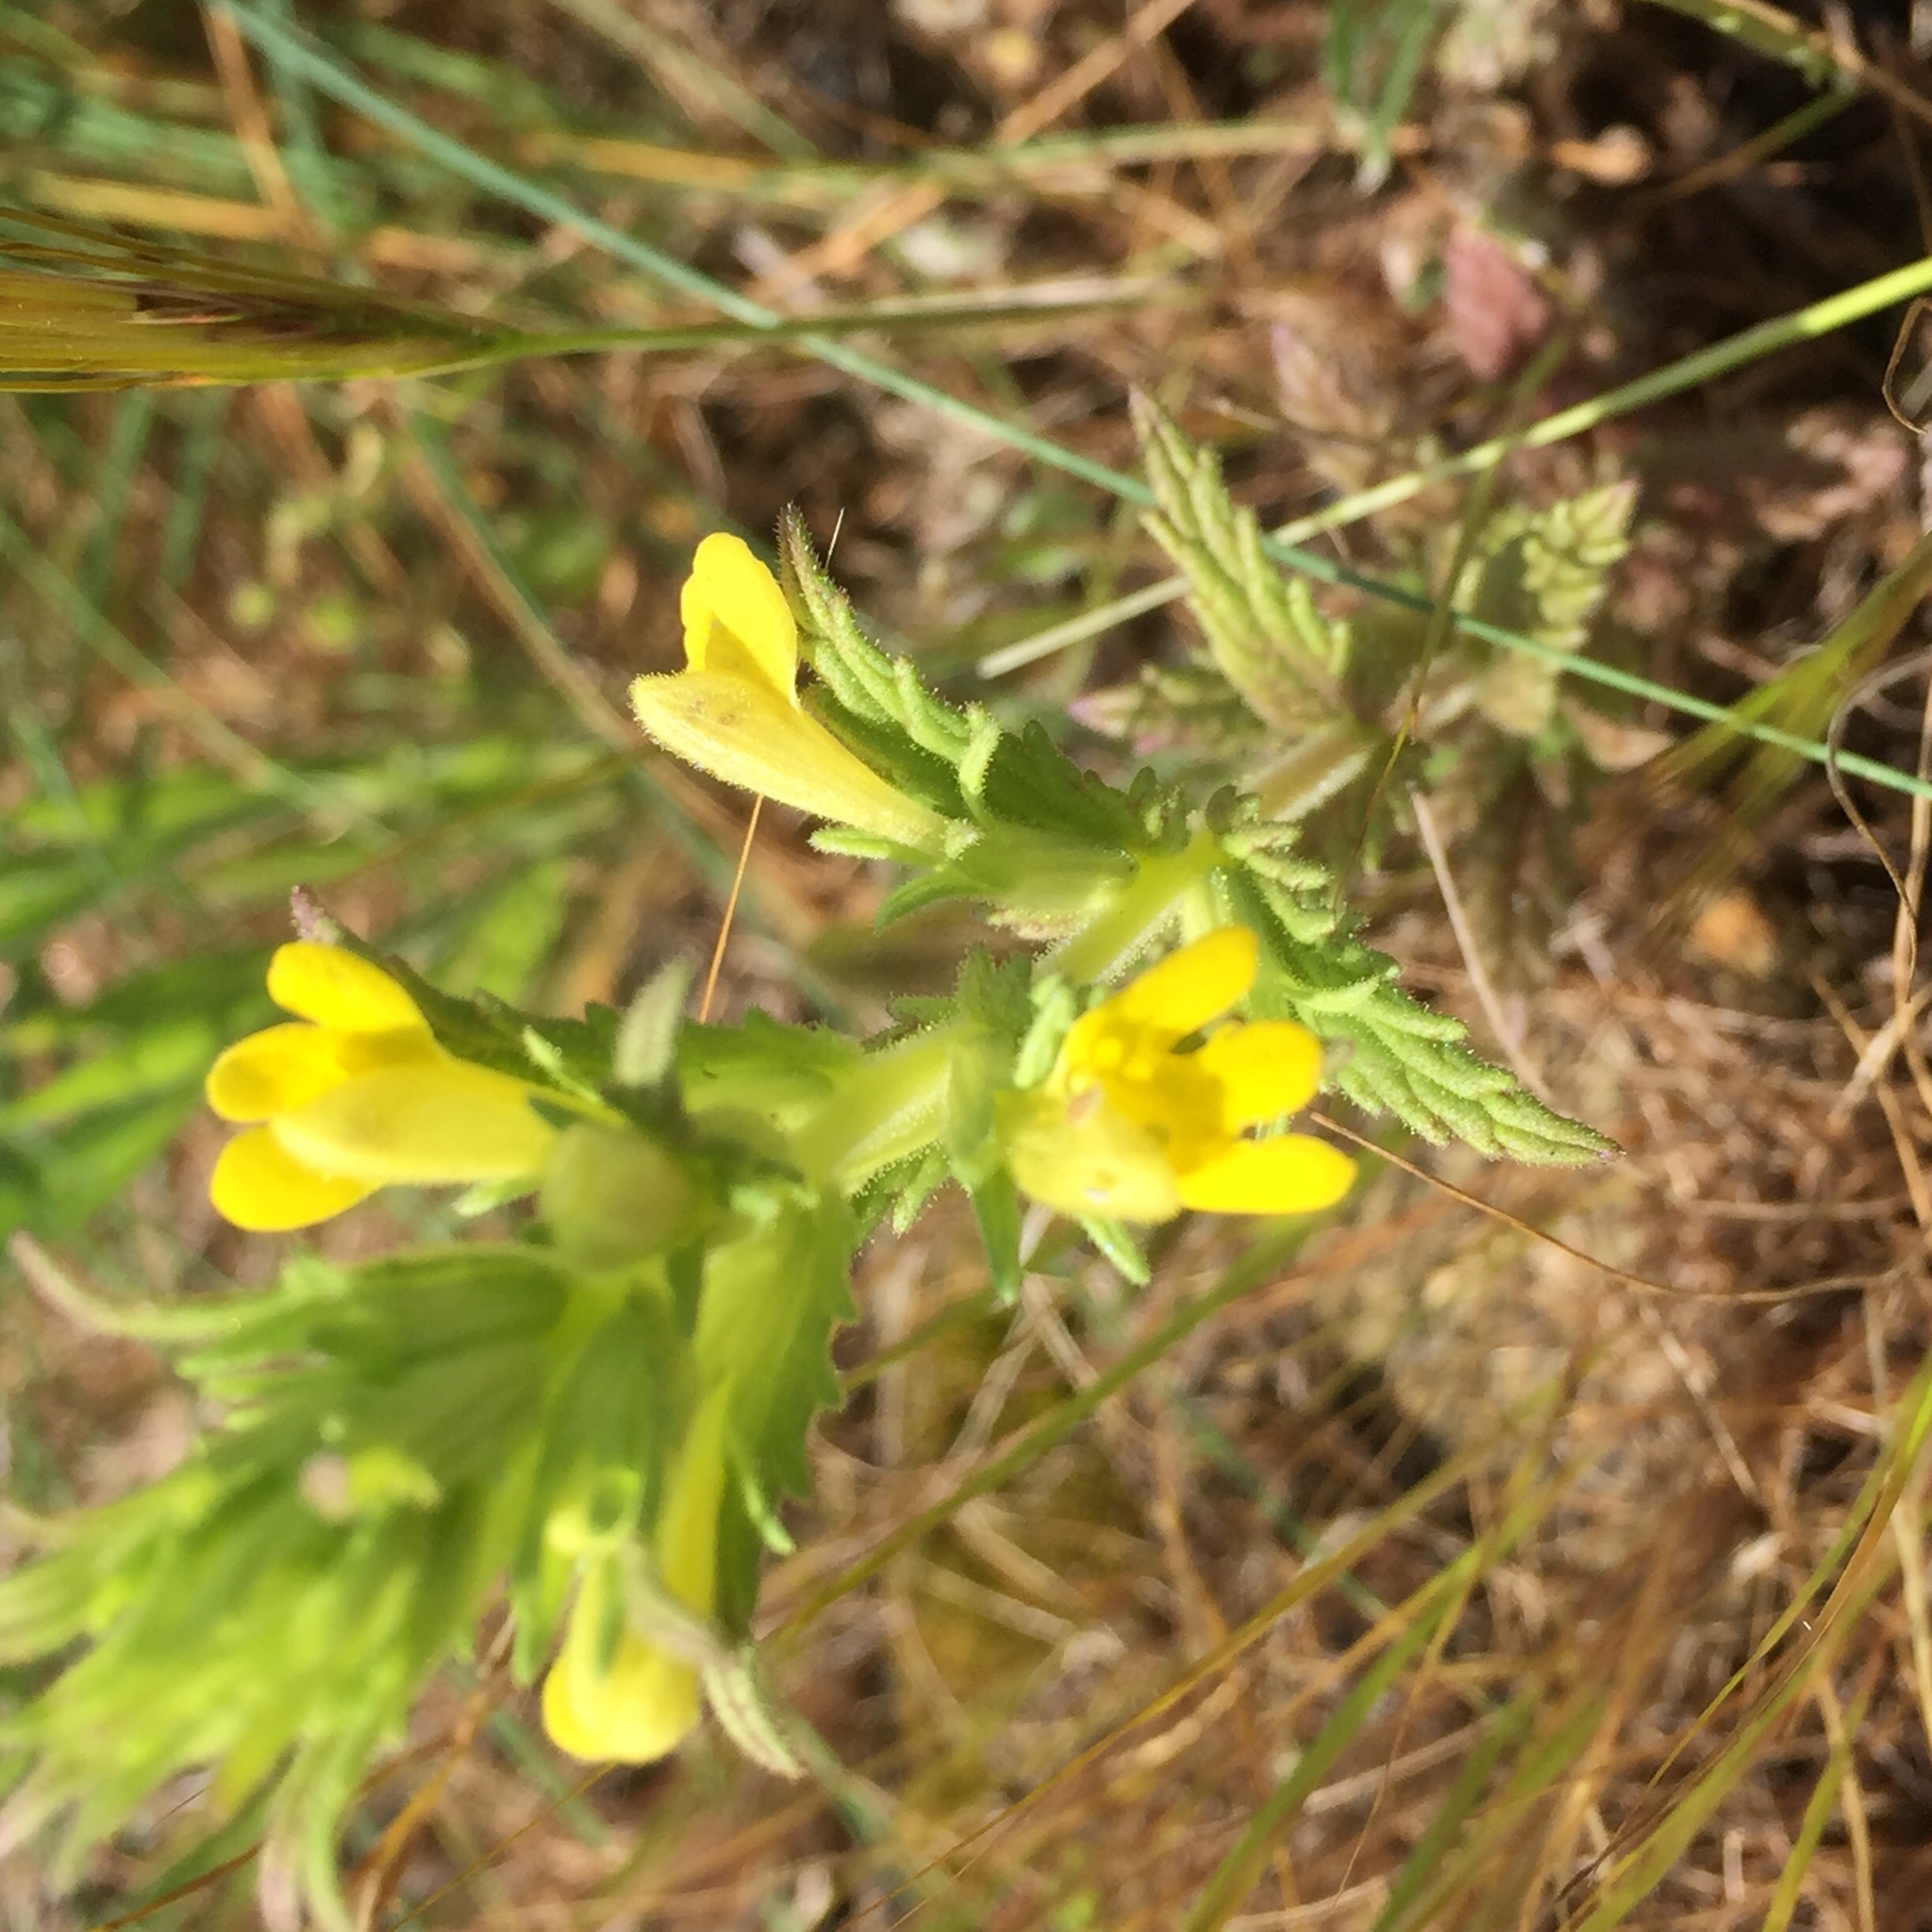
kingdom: Plantae
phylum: Tracheophyta
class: Magnoliopsida
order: Lamiales
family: Orobanchaceae
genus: Bellardia
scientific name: Bellardia viscosa
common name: Sticky parentucellia
